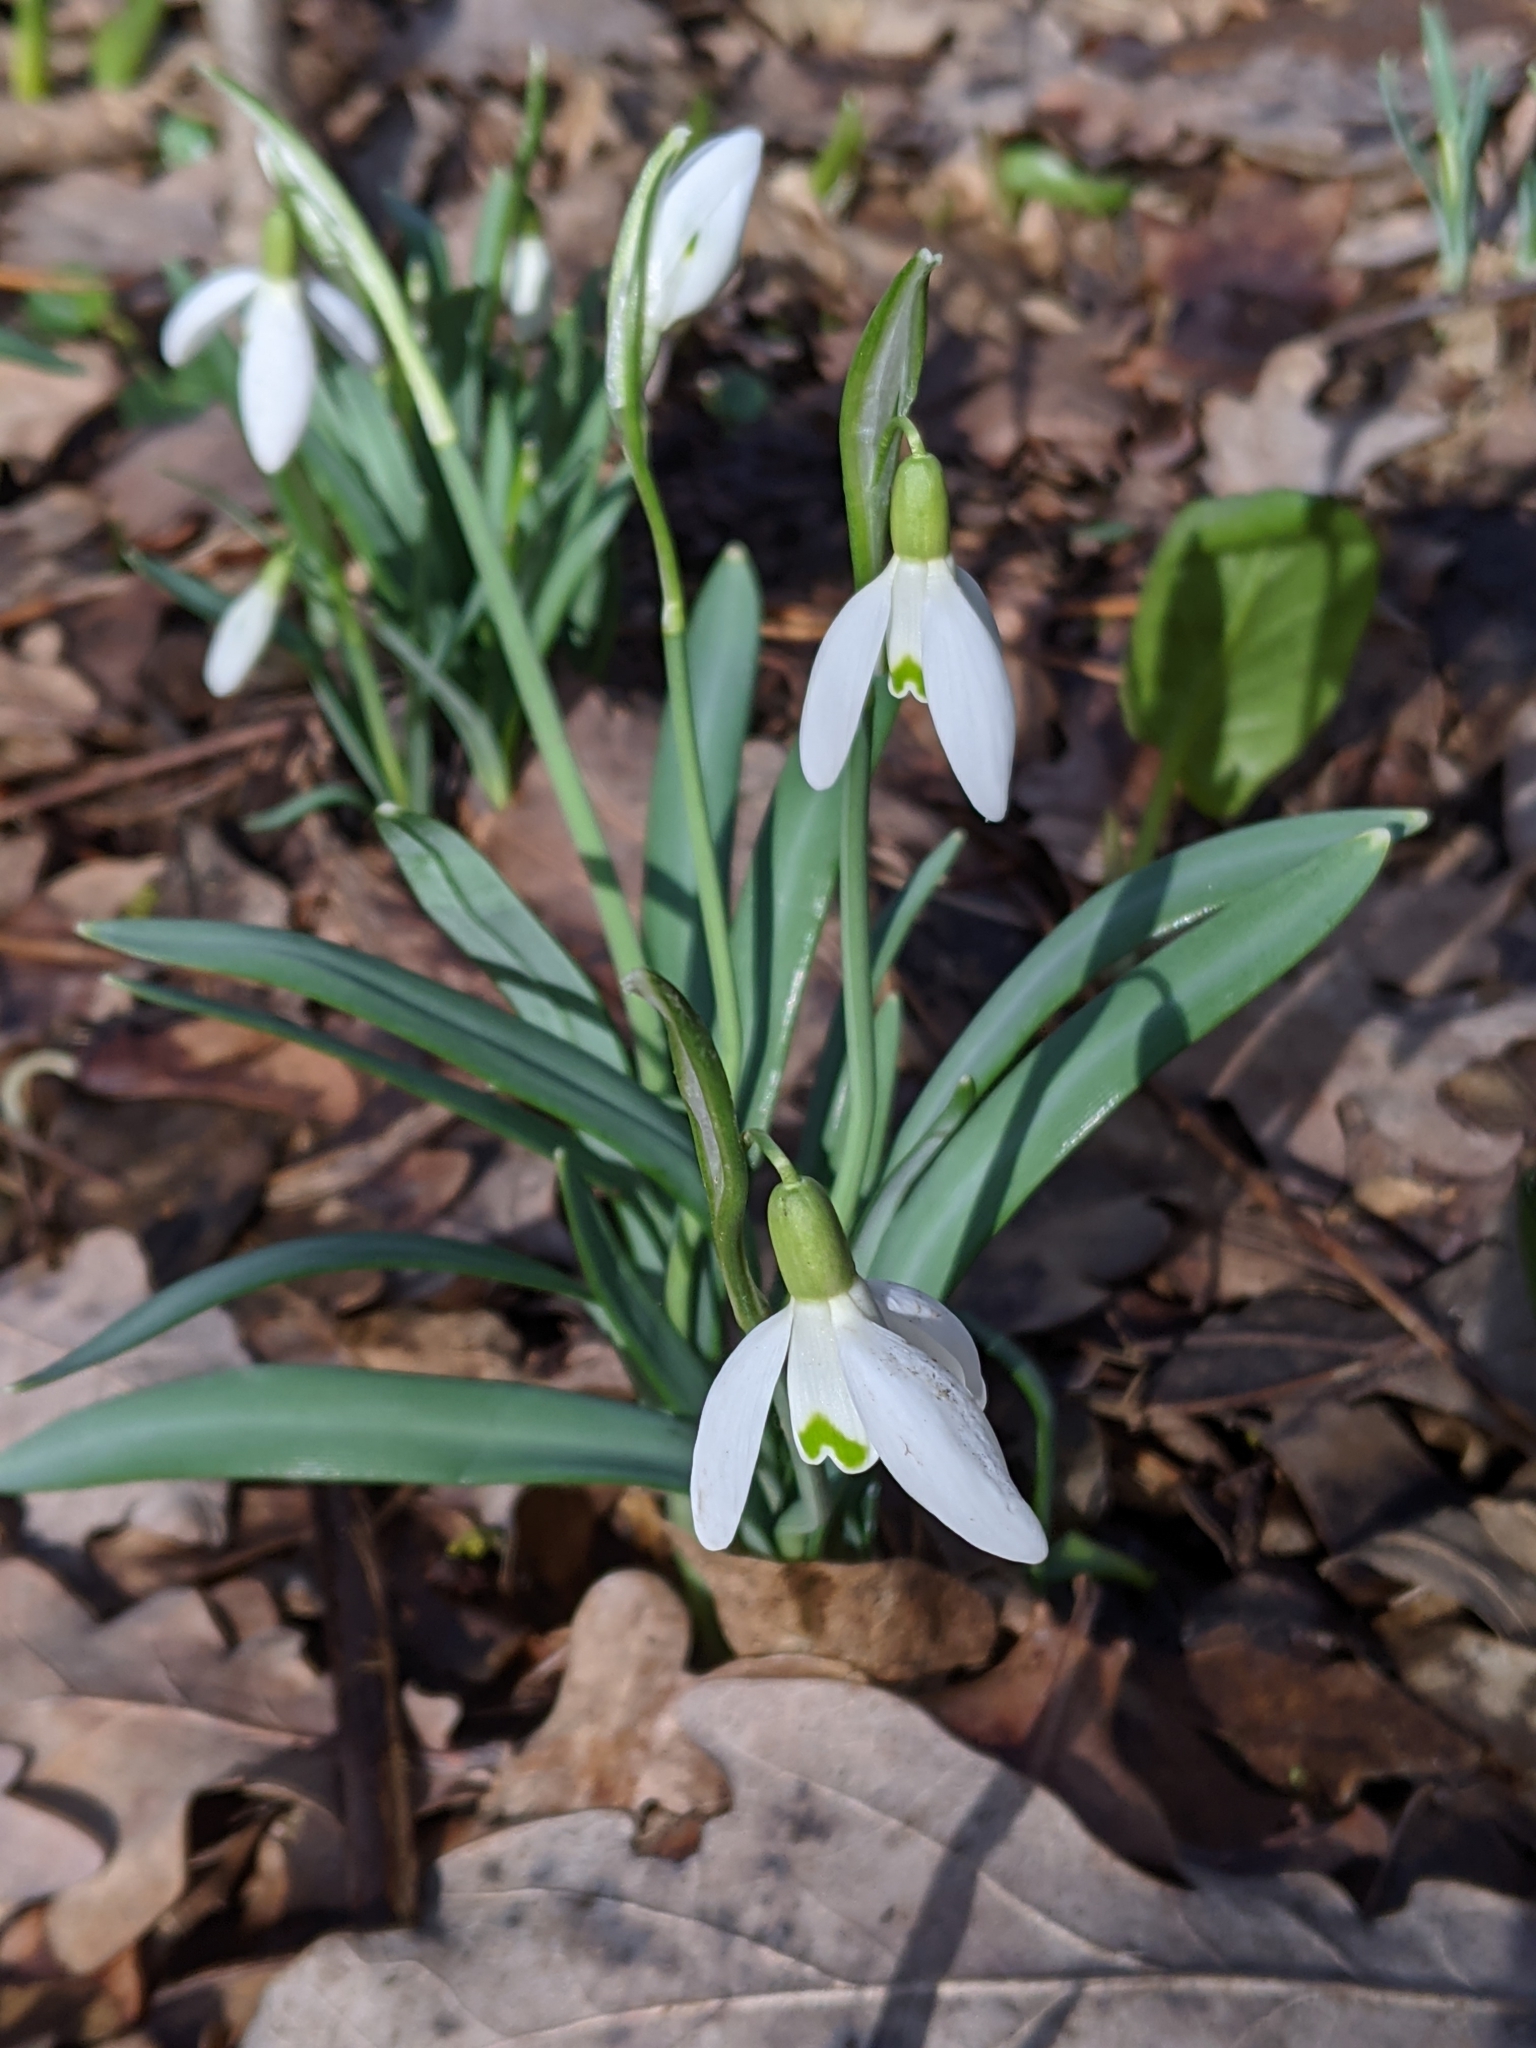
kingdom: Plantae
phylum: Tracheophyta
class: Liliopsida
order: Asparagales
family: Amaryllidaceae
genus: Galanthus
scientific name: Galanthus nivalis
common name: Snowdrop
